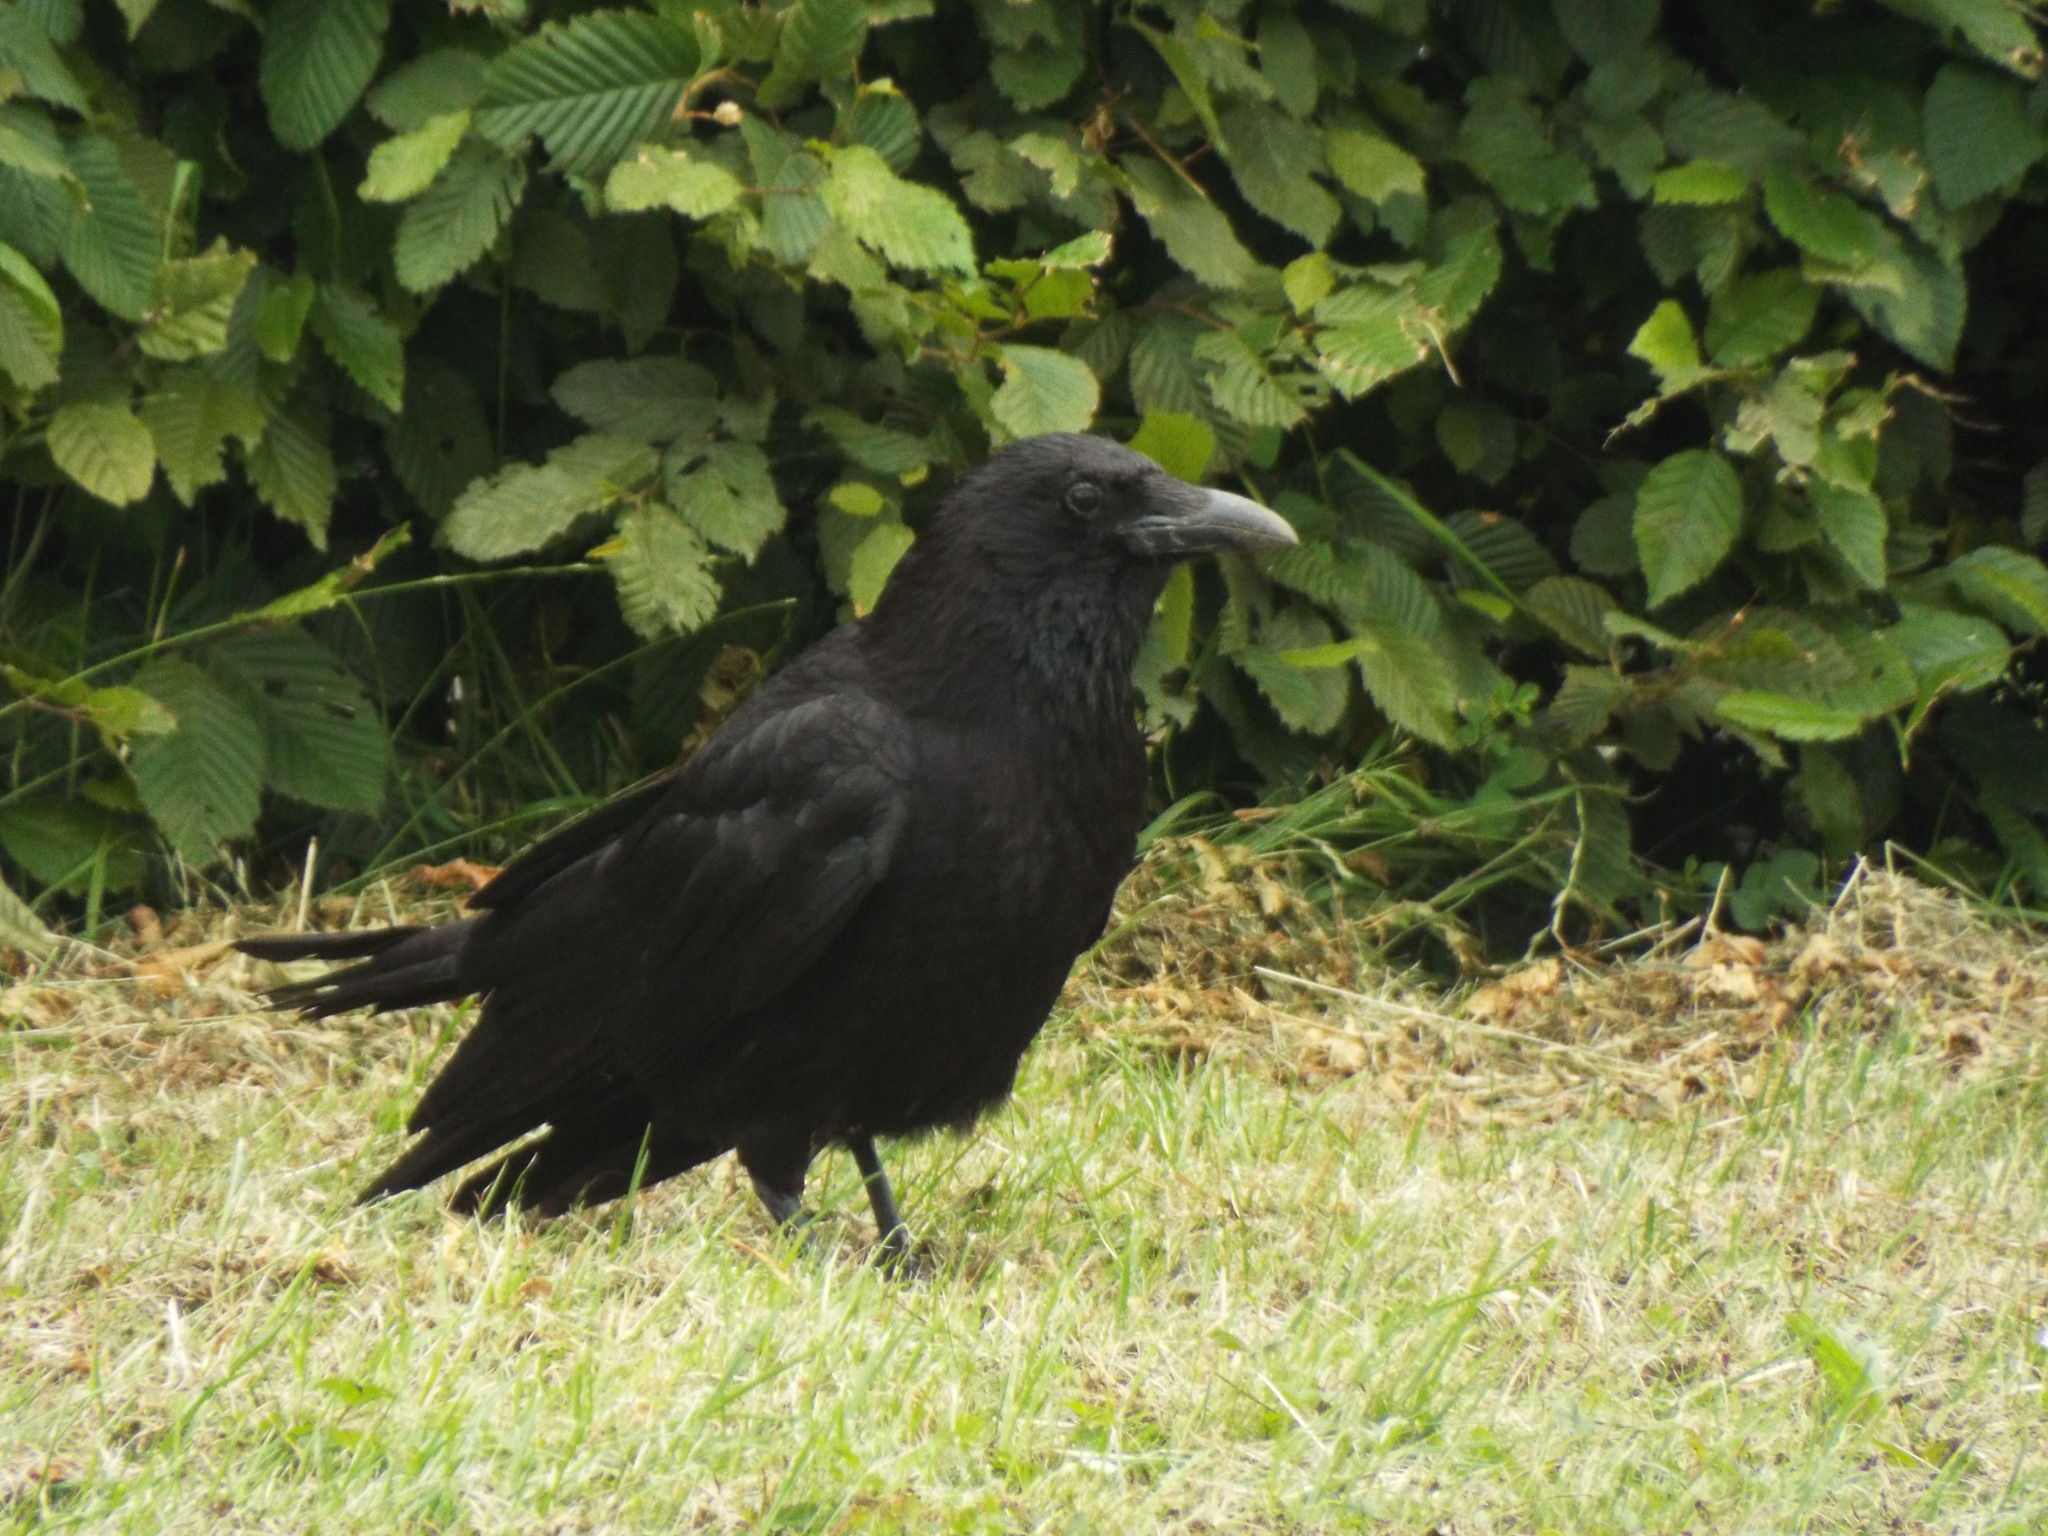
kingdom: Animalia
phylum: Chordata
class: Aves
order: Passeriformes
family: Corvidae
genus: Corvus
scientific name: Corvus corone
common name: Carrion crow
